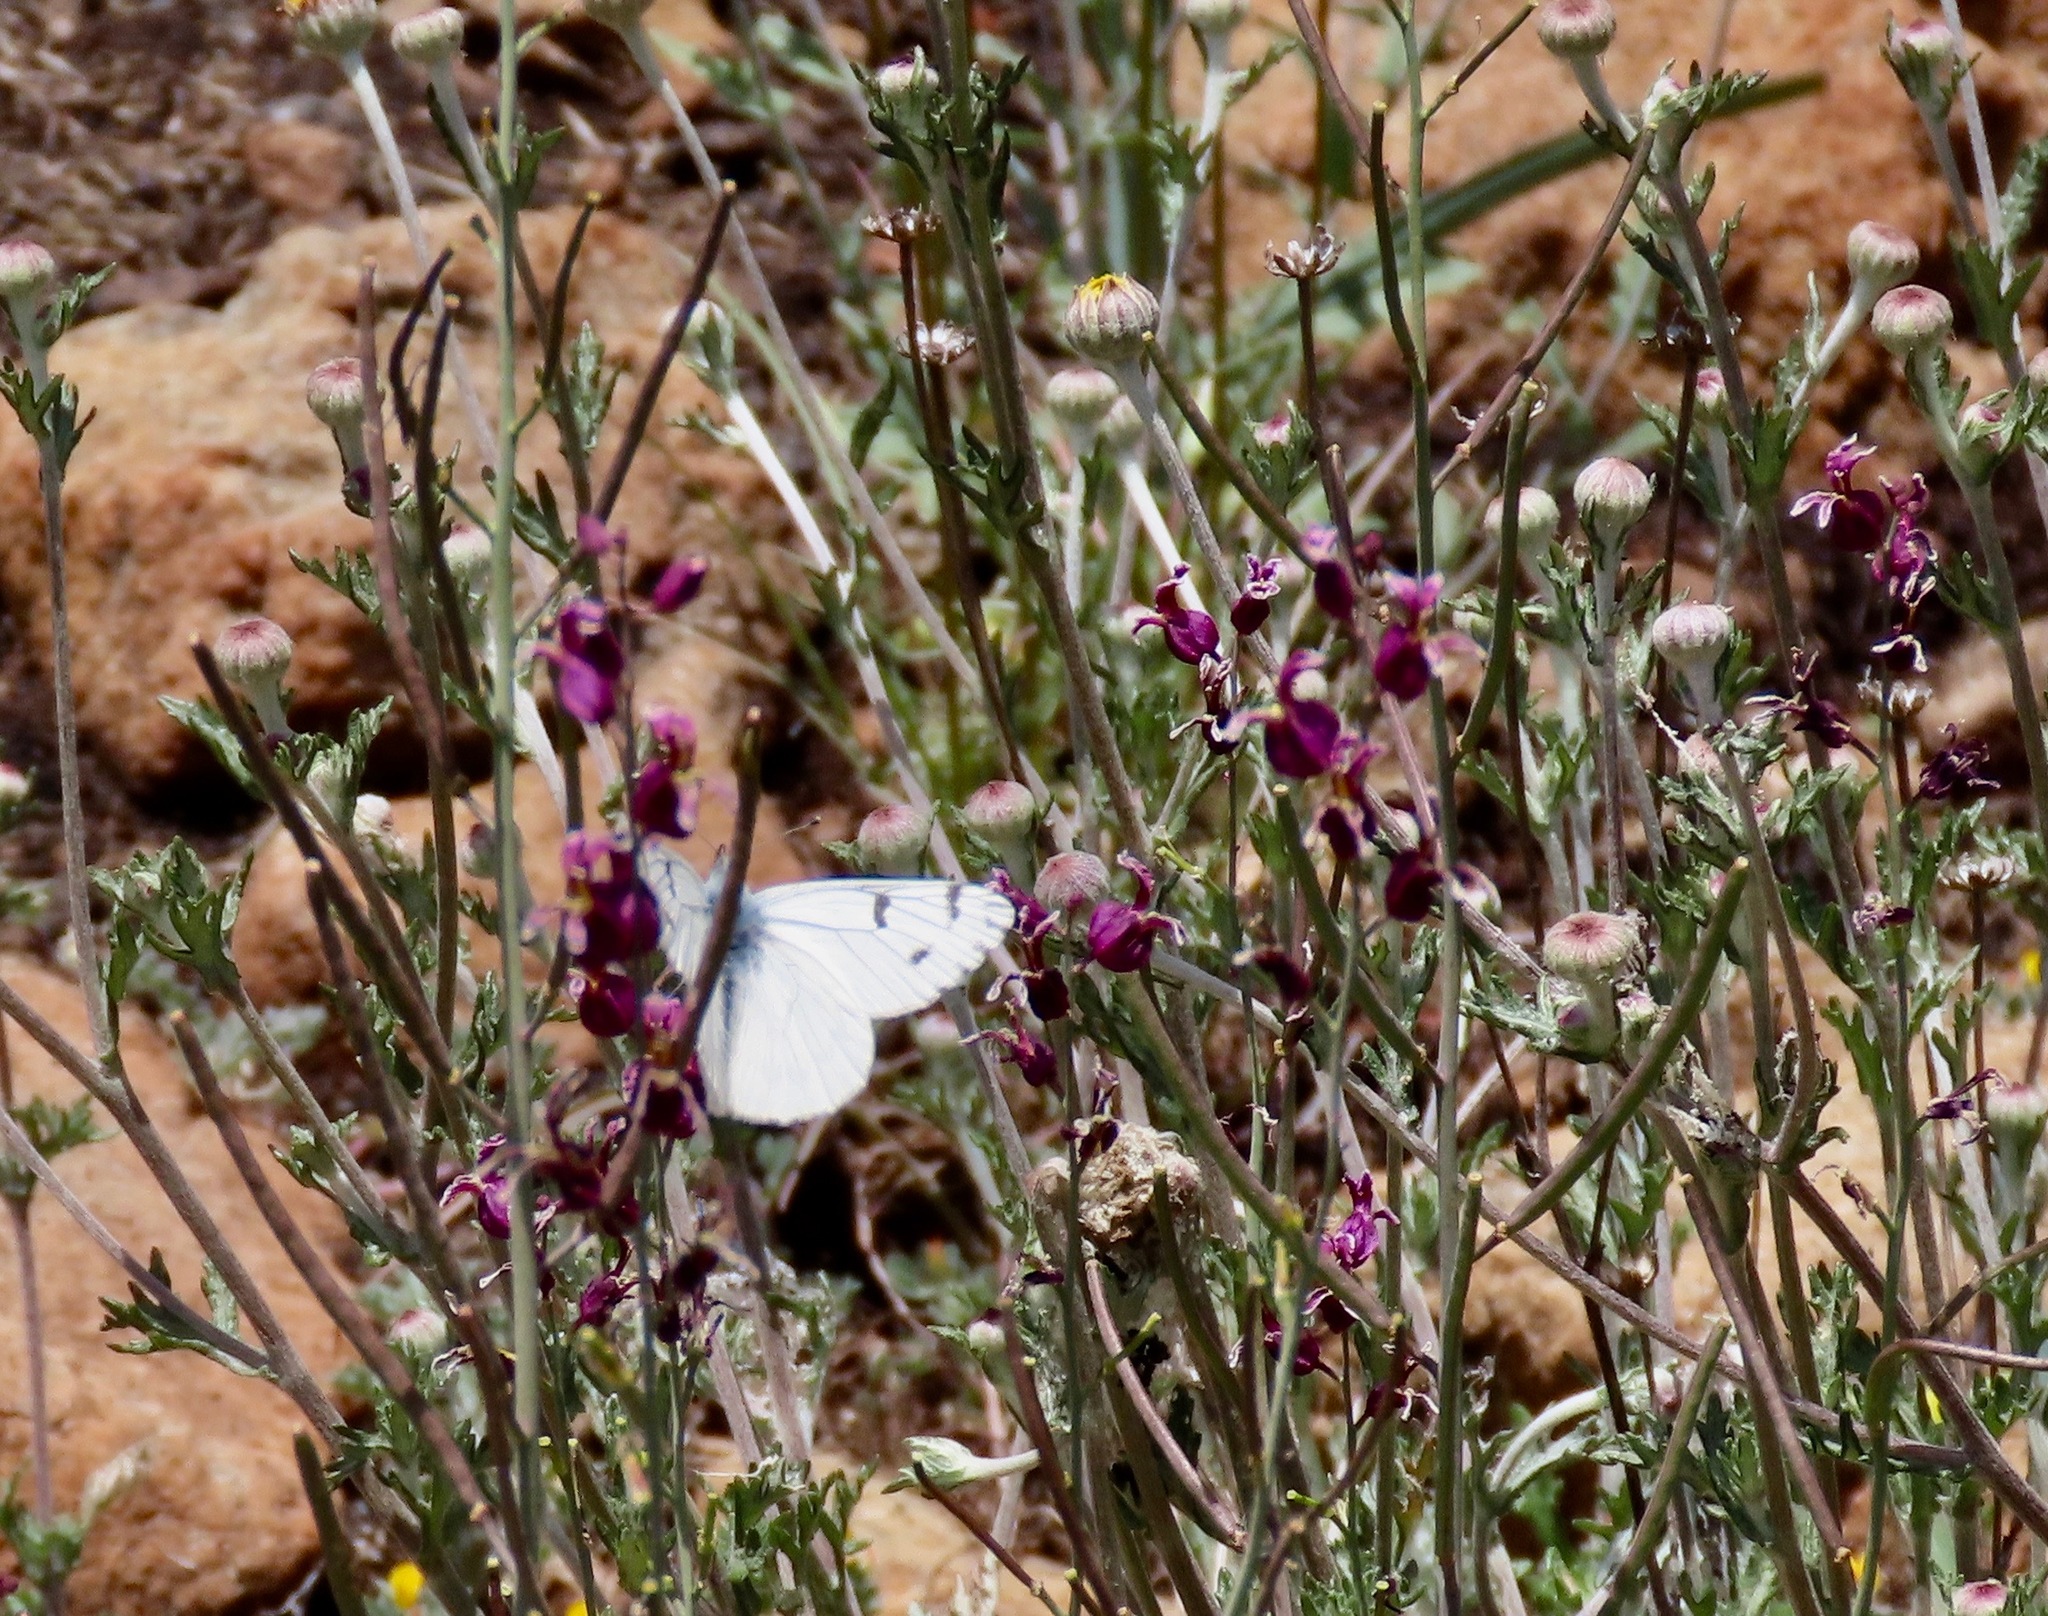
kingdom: Animalia
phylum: Arthropoda
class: Insecta
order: Lepidoptera
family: Pieridae
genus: Pontia
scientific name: Pontia sisymbrii
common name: California white
